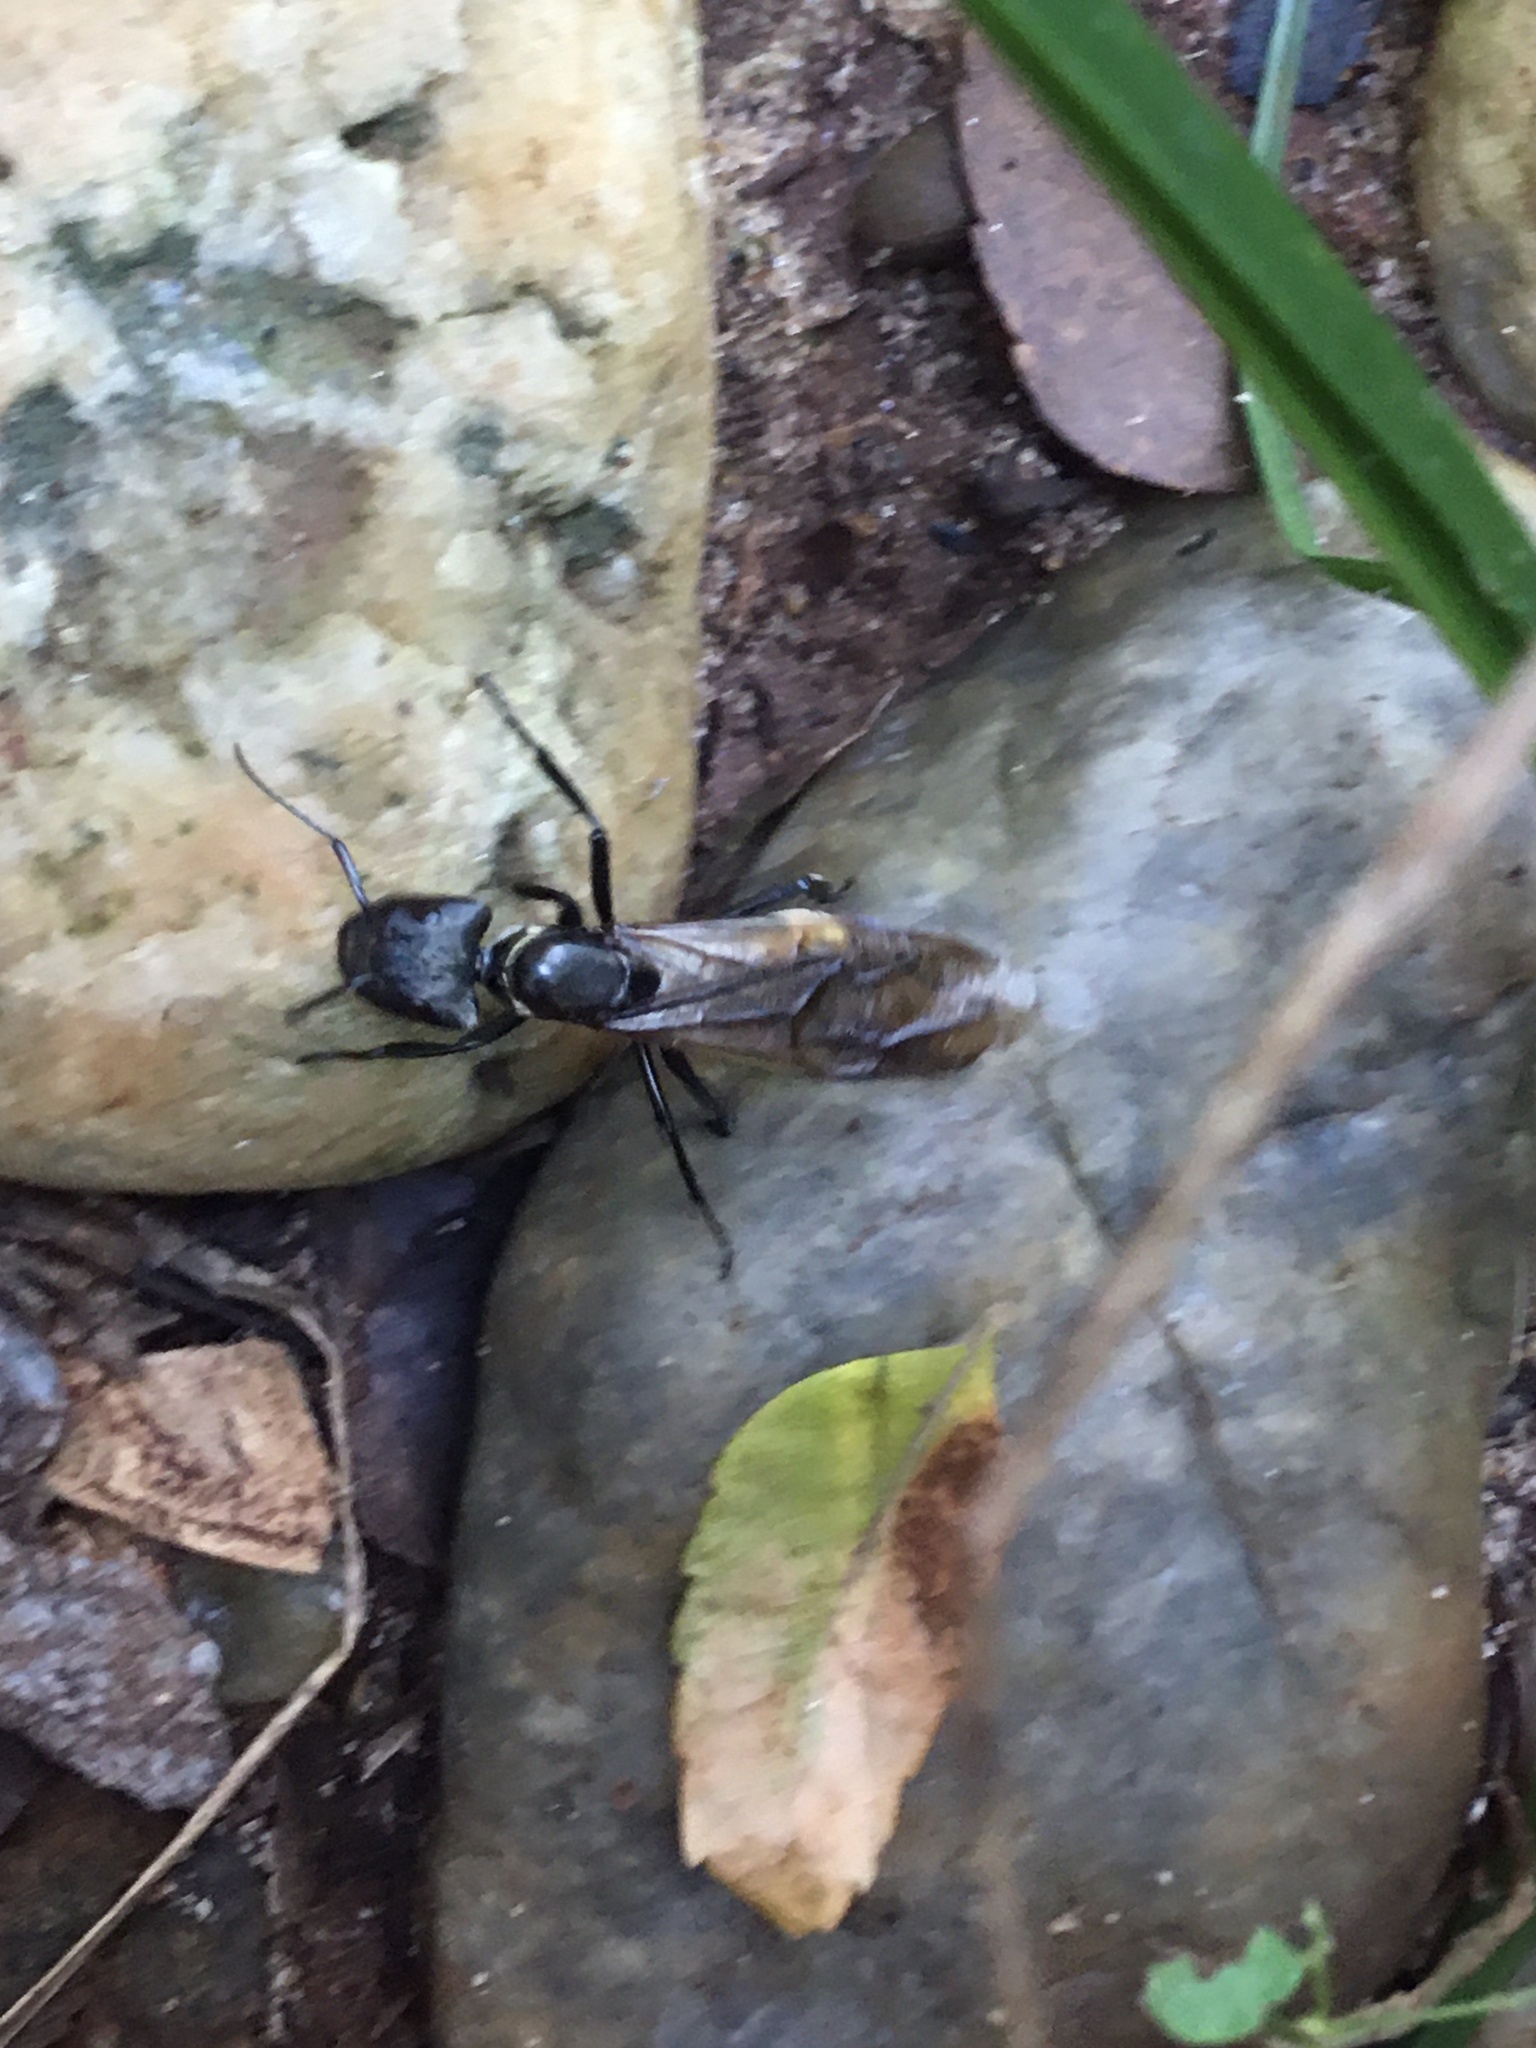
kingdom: Animalia
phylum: Arthropoda
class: Insecta
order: Hymenoptera
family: Formicidae
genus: Camponotus
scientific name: Camponotus sericeiventris
